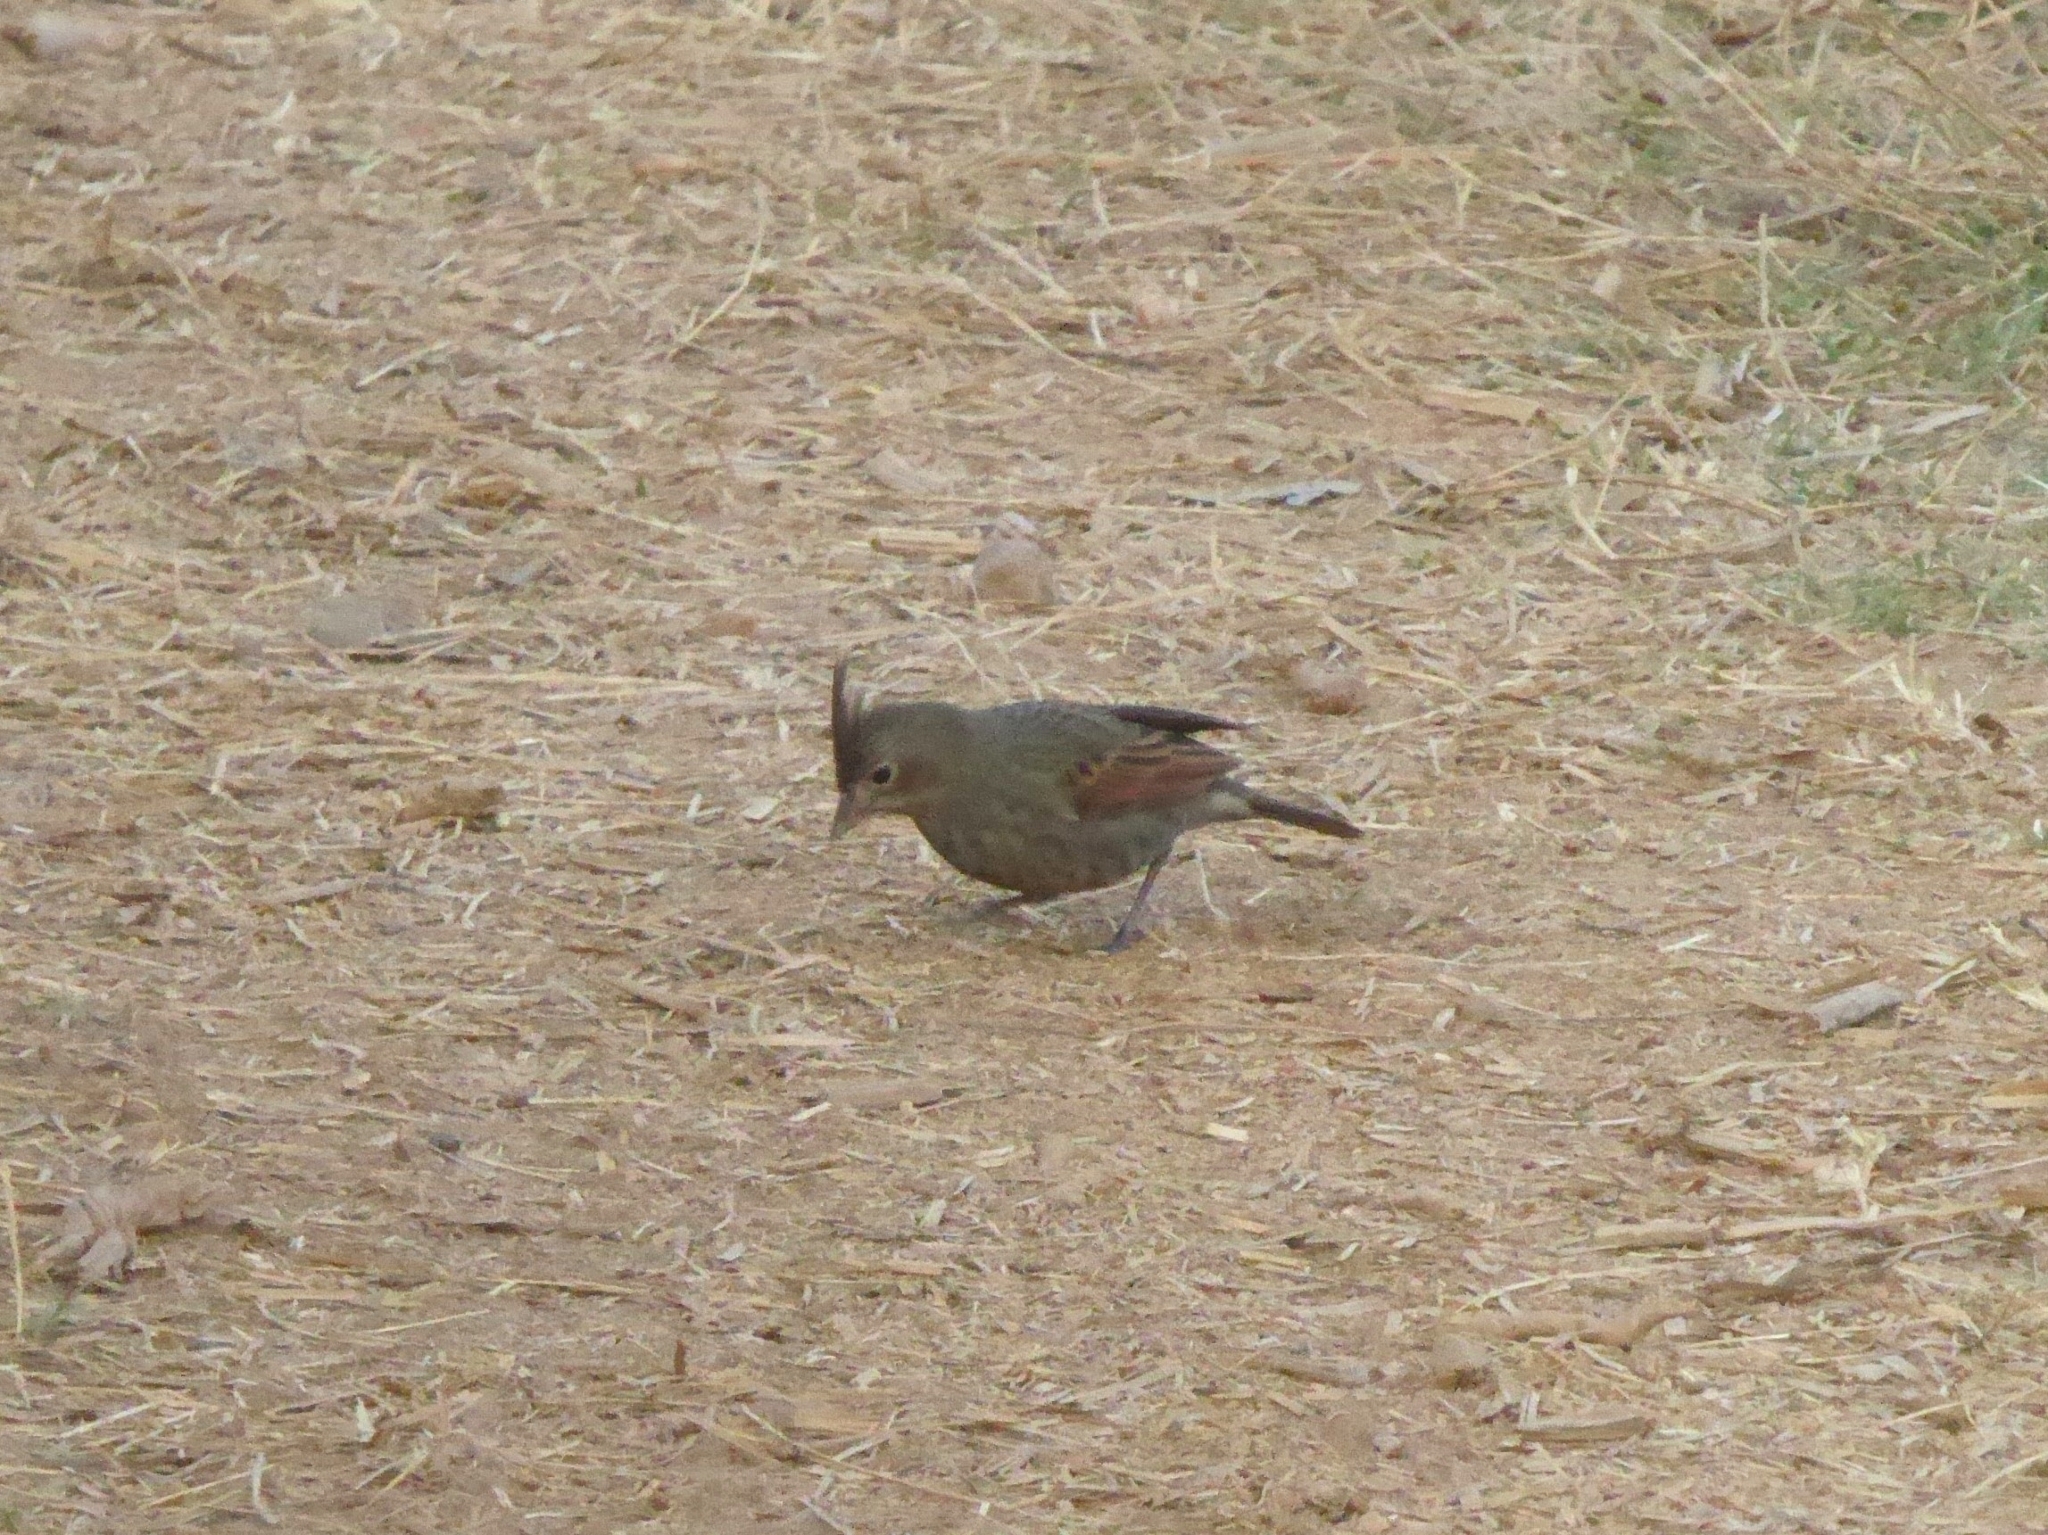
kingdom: Animalia
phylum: Chordata
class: Aves
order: Passeriformes
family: Emberizidae
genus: Emberiza
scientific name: Emberiza lathami
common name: Crested bunting
